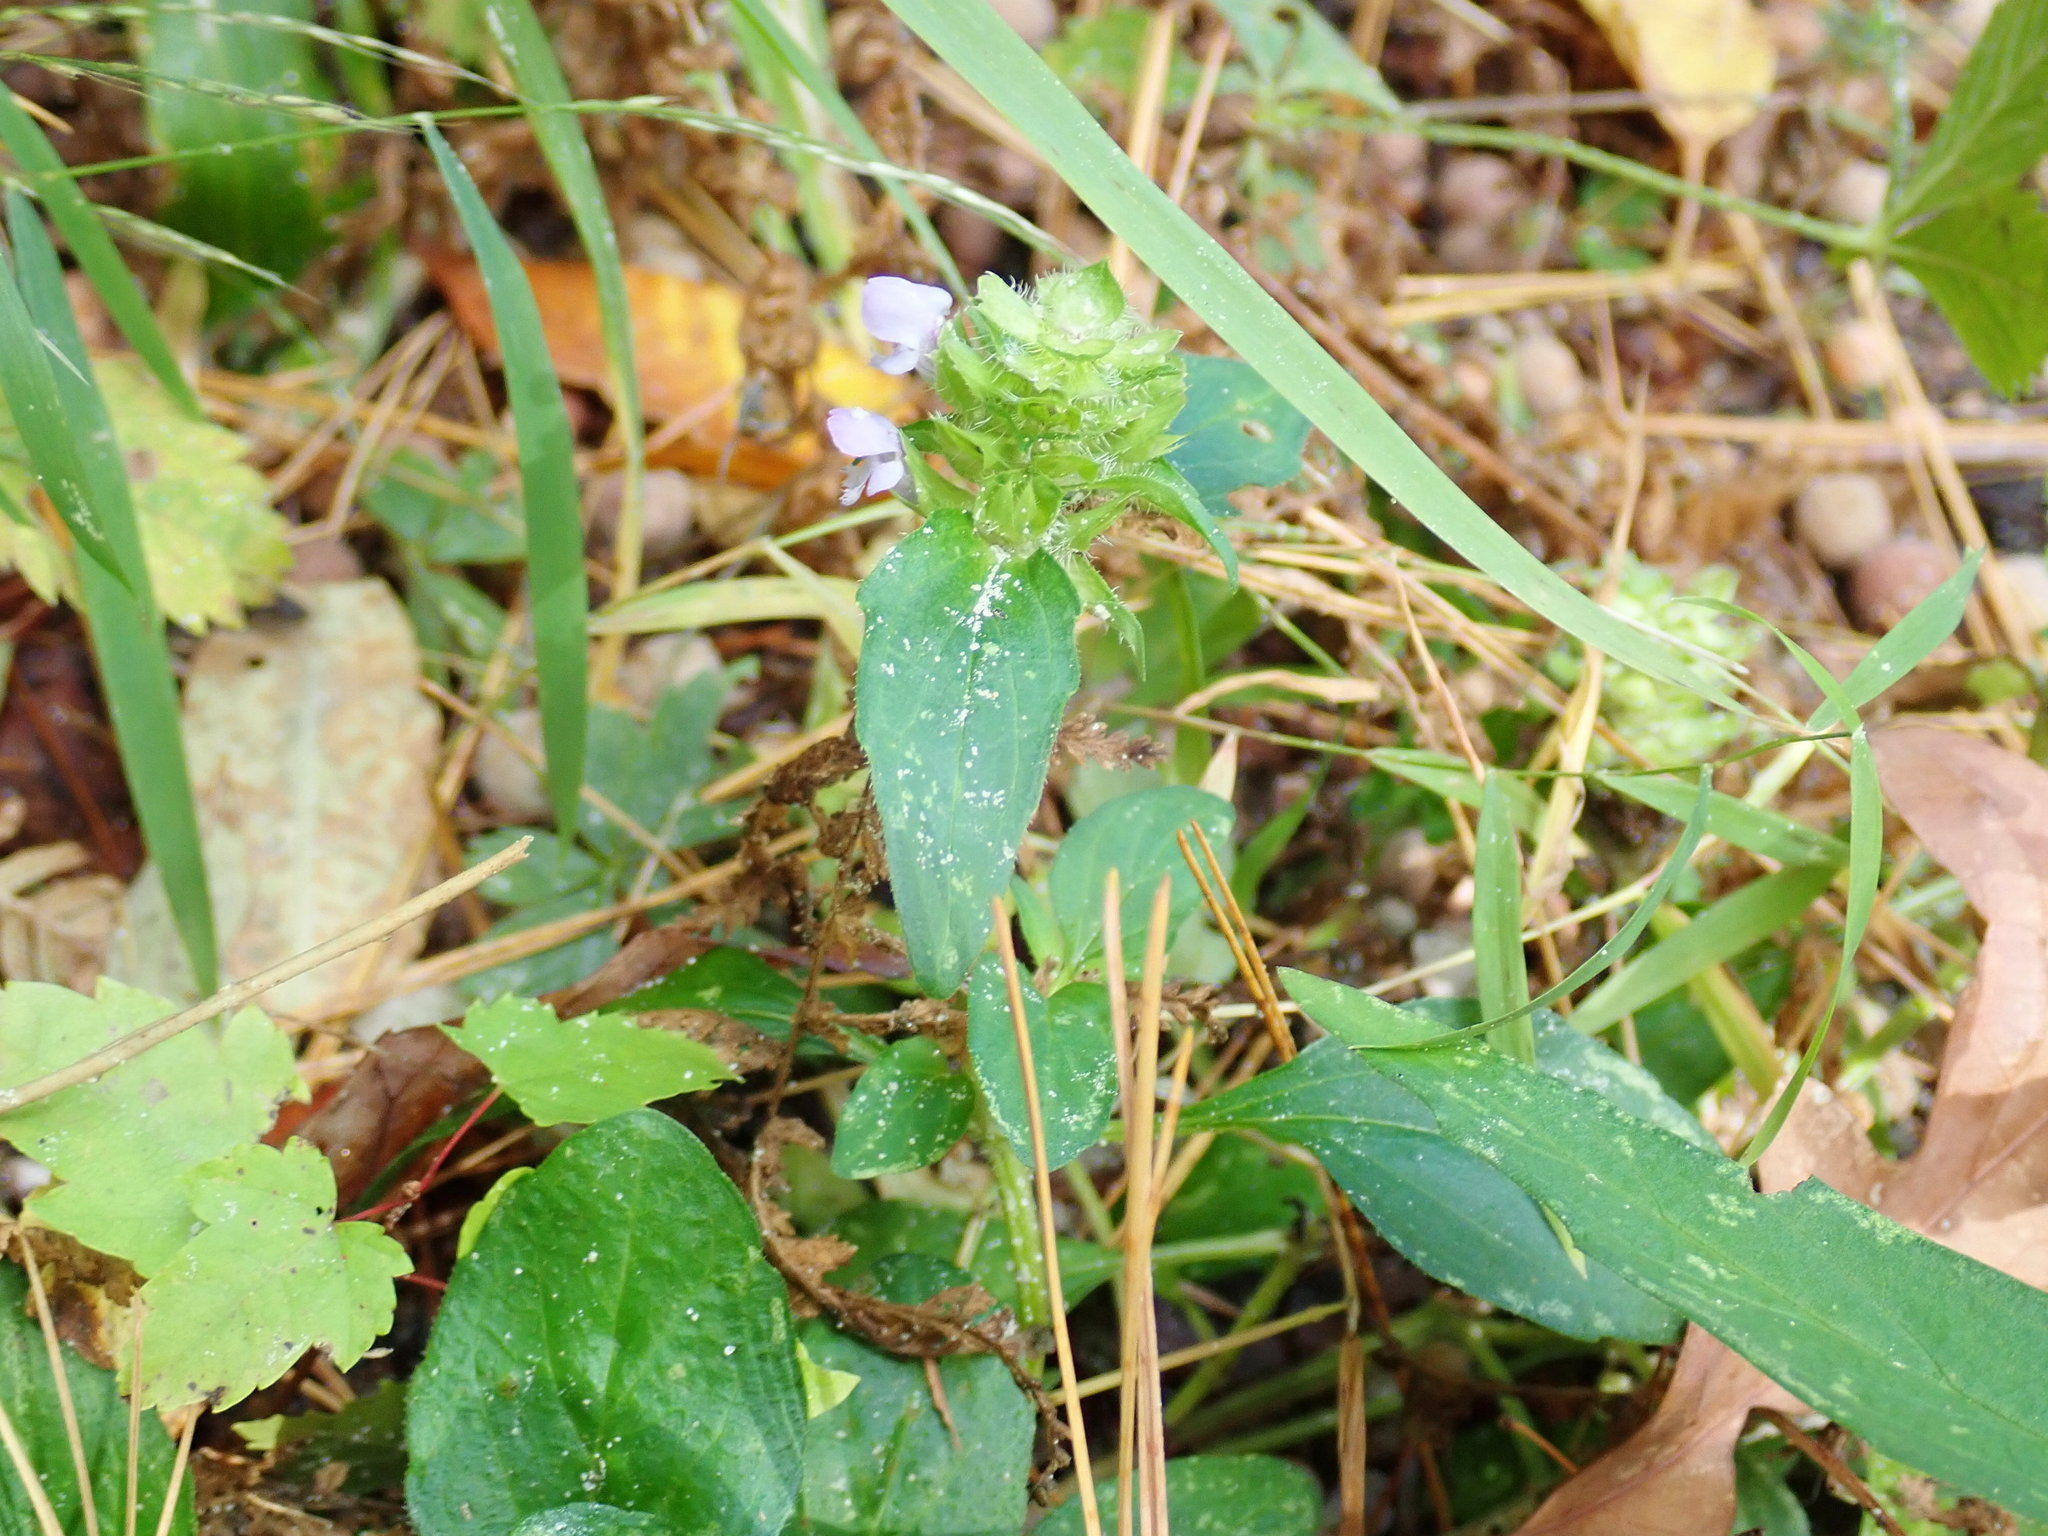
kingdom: Plantae
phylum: Tracheophyta
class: Magnoliopsida
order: Lamiales
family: Lamiaceae
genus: Prunella
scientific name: Prunella vulgaris
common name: Heal-all
